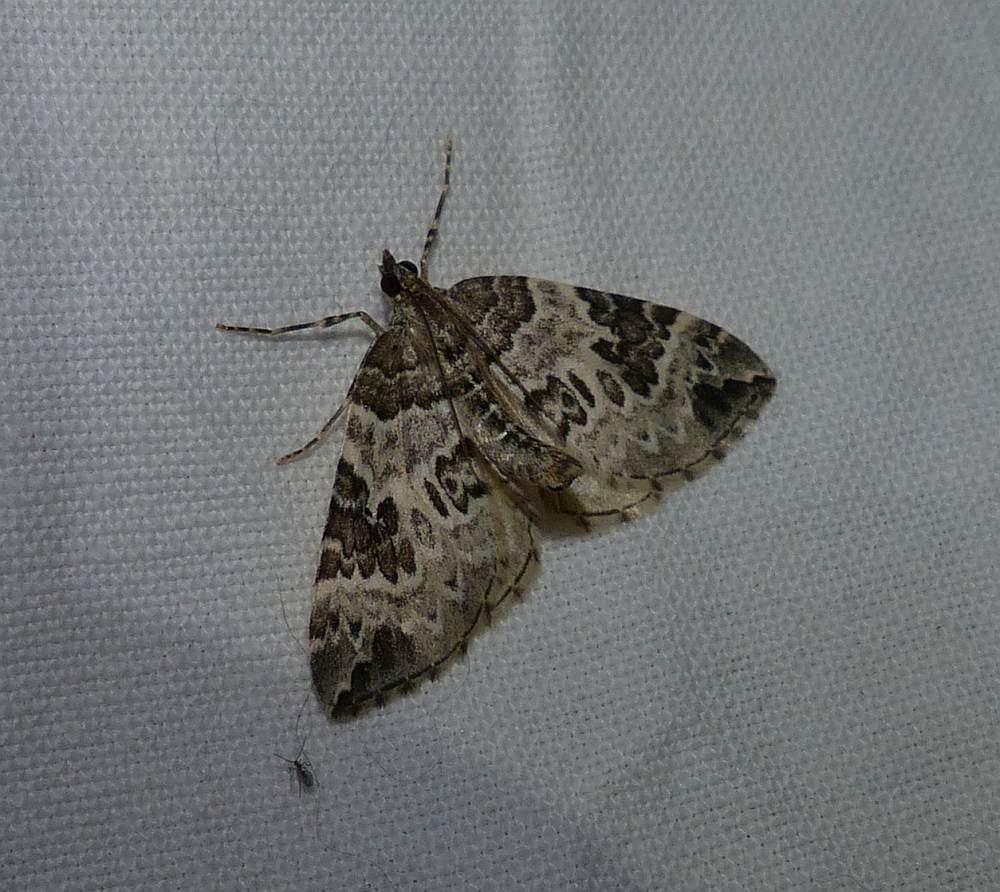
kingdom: Animalia
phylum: Arthropoda
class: Insecta
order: Lepidoptera
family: Geometridae
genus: Eulithis
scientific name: Eulithis explanata
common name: White eulithis
